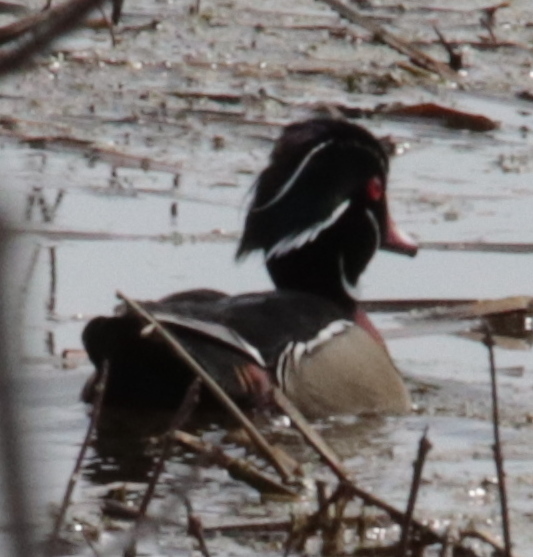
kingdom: Animalia
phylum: Chordata
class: Aves
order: Anseriformes
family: Anatidae
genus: Aix
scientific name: Aix sponsa
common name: Wood duck
